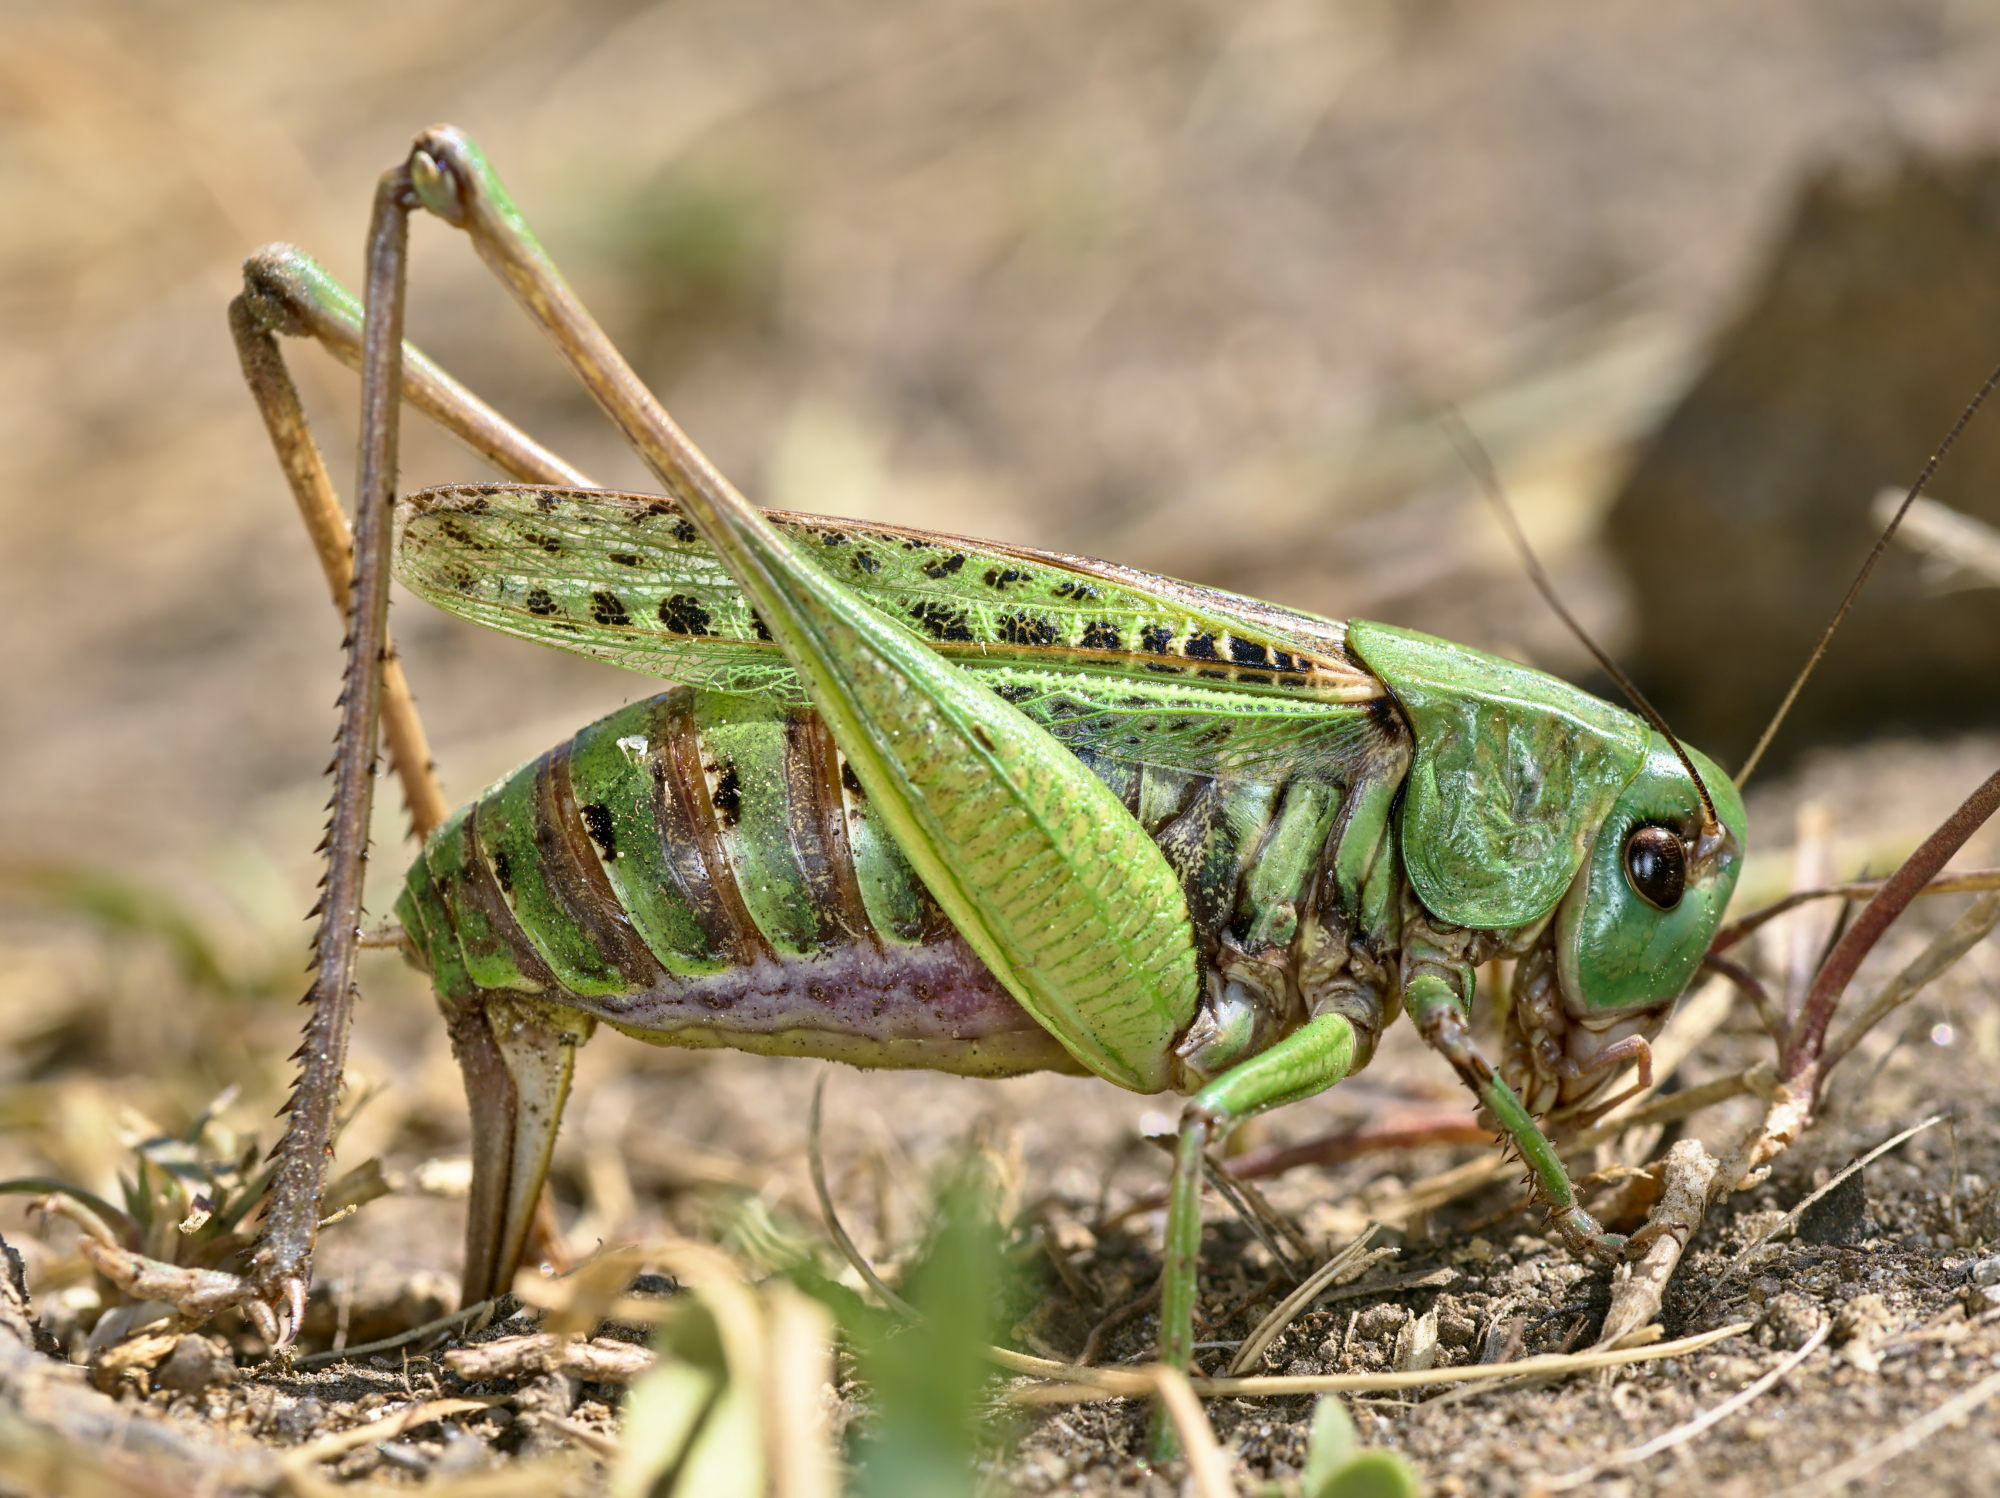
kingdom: Animalia
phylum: Arthropoda
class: Insecta
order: Orthoptera
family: Tettigoniidae
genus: Decticus
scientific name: Decticus verrucivorus
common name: Wart-biter
